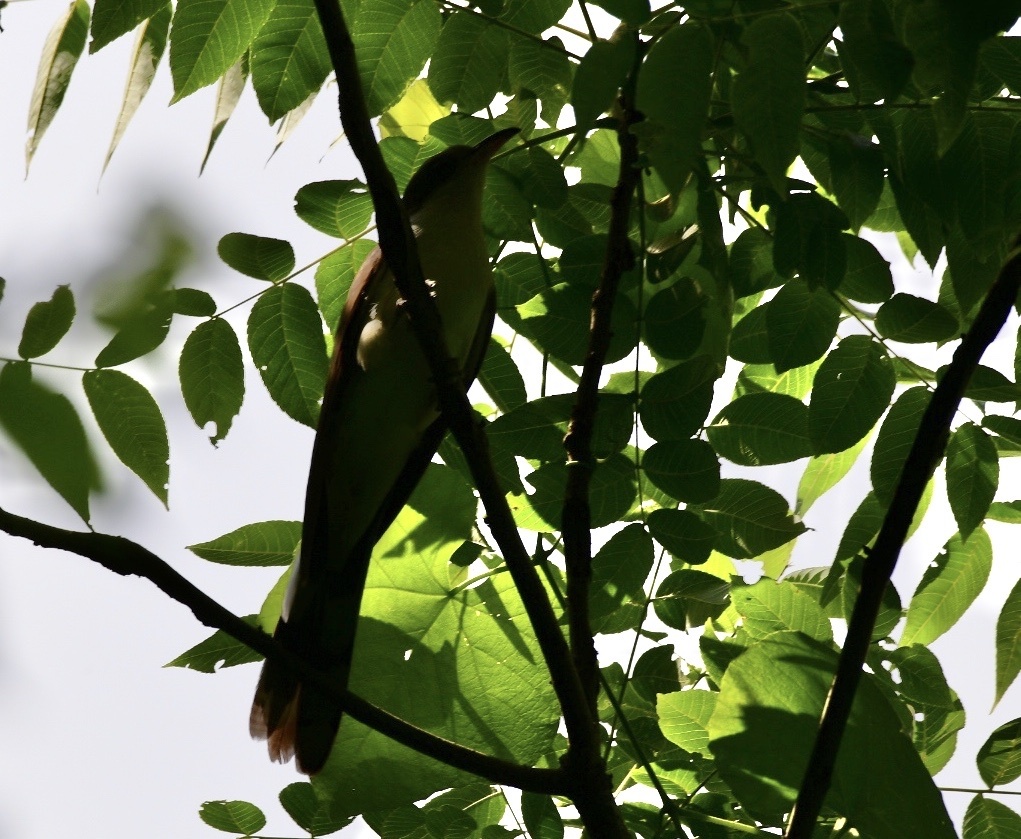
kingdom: Animalia
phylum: Chordata
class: Aves
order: Cuculiformes
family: Cuculidae
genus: Coccyzus
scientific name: Coccyzus americanus
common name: Yellow-billed cuckoo
